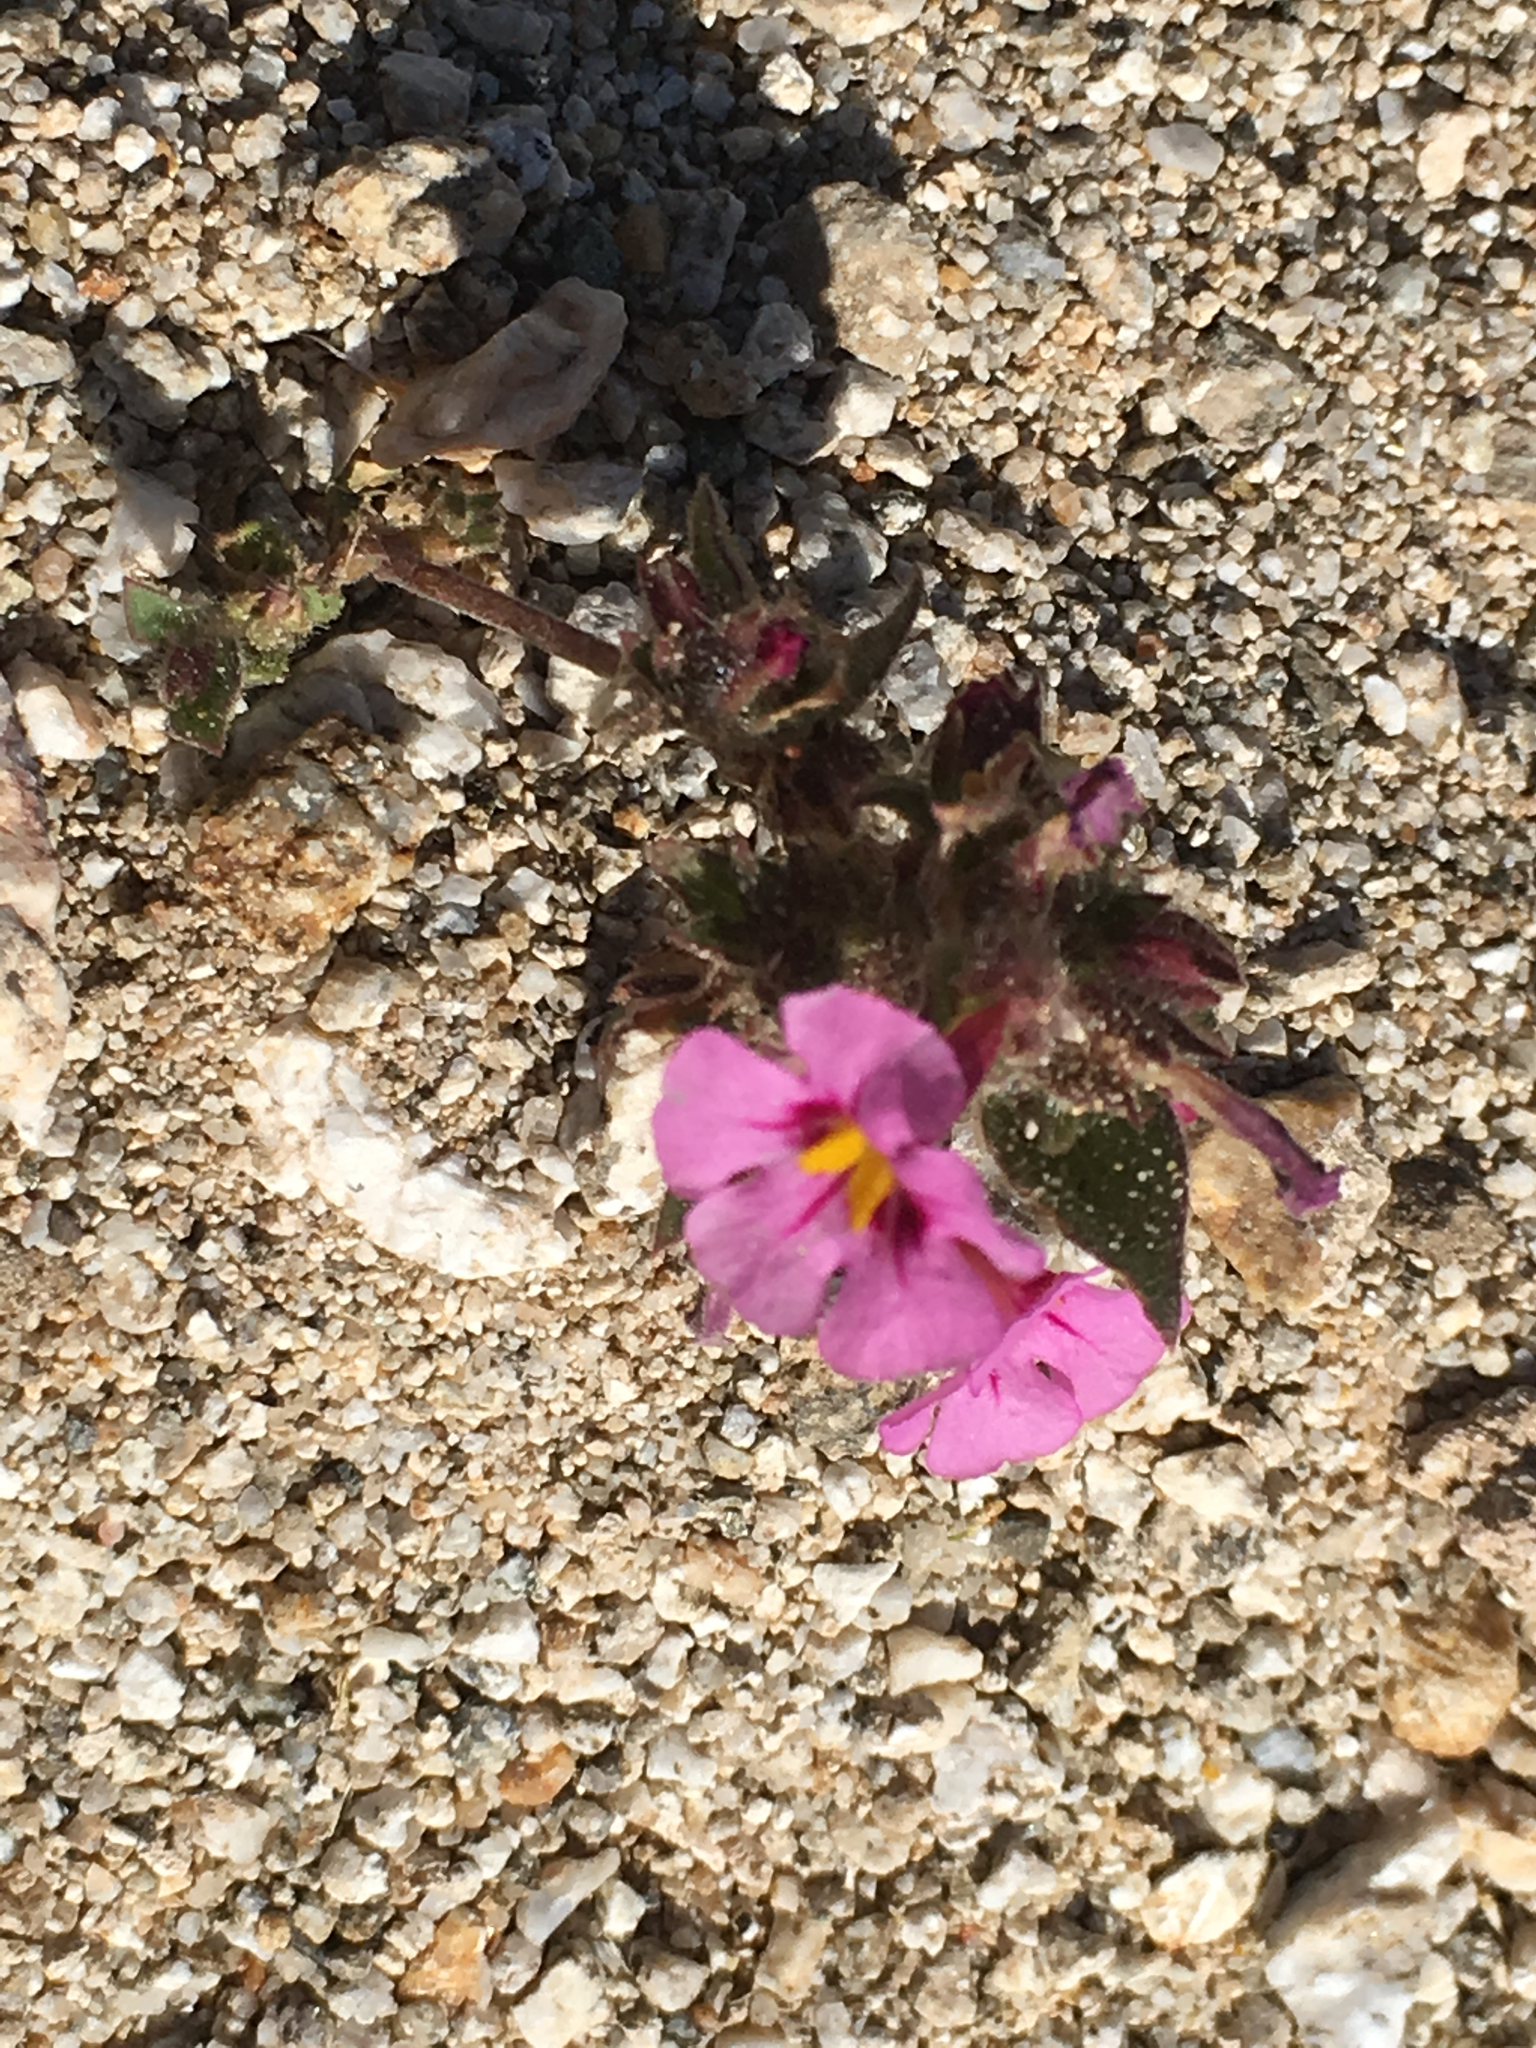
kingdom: Plantae
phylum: Tracheophyta
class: Magnoliopsida
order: Lamiales
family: Phrymaceae
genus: Diplacus
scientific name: Diplacus bigelovii
